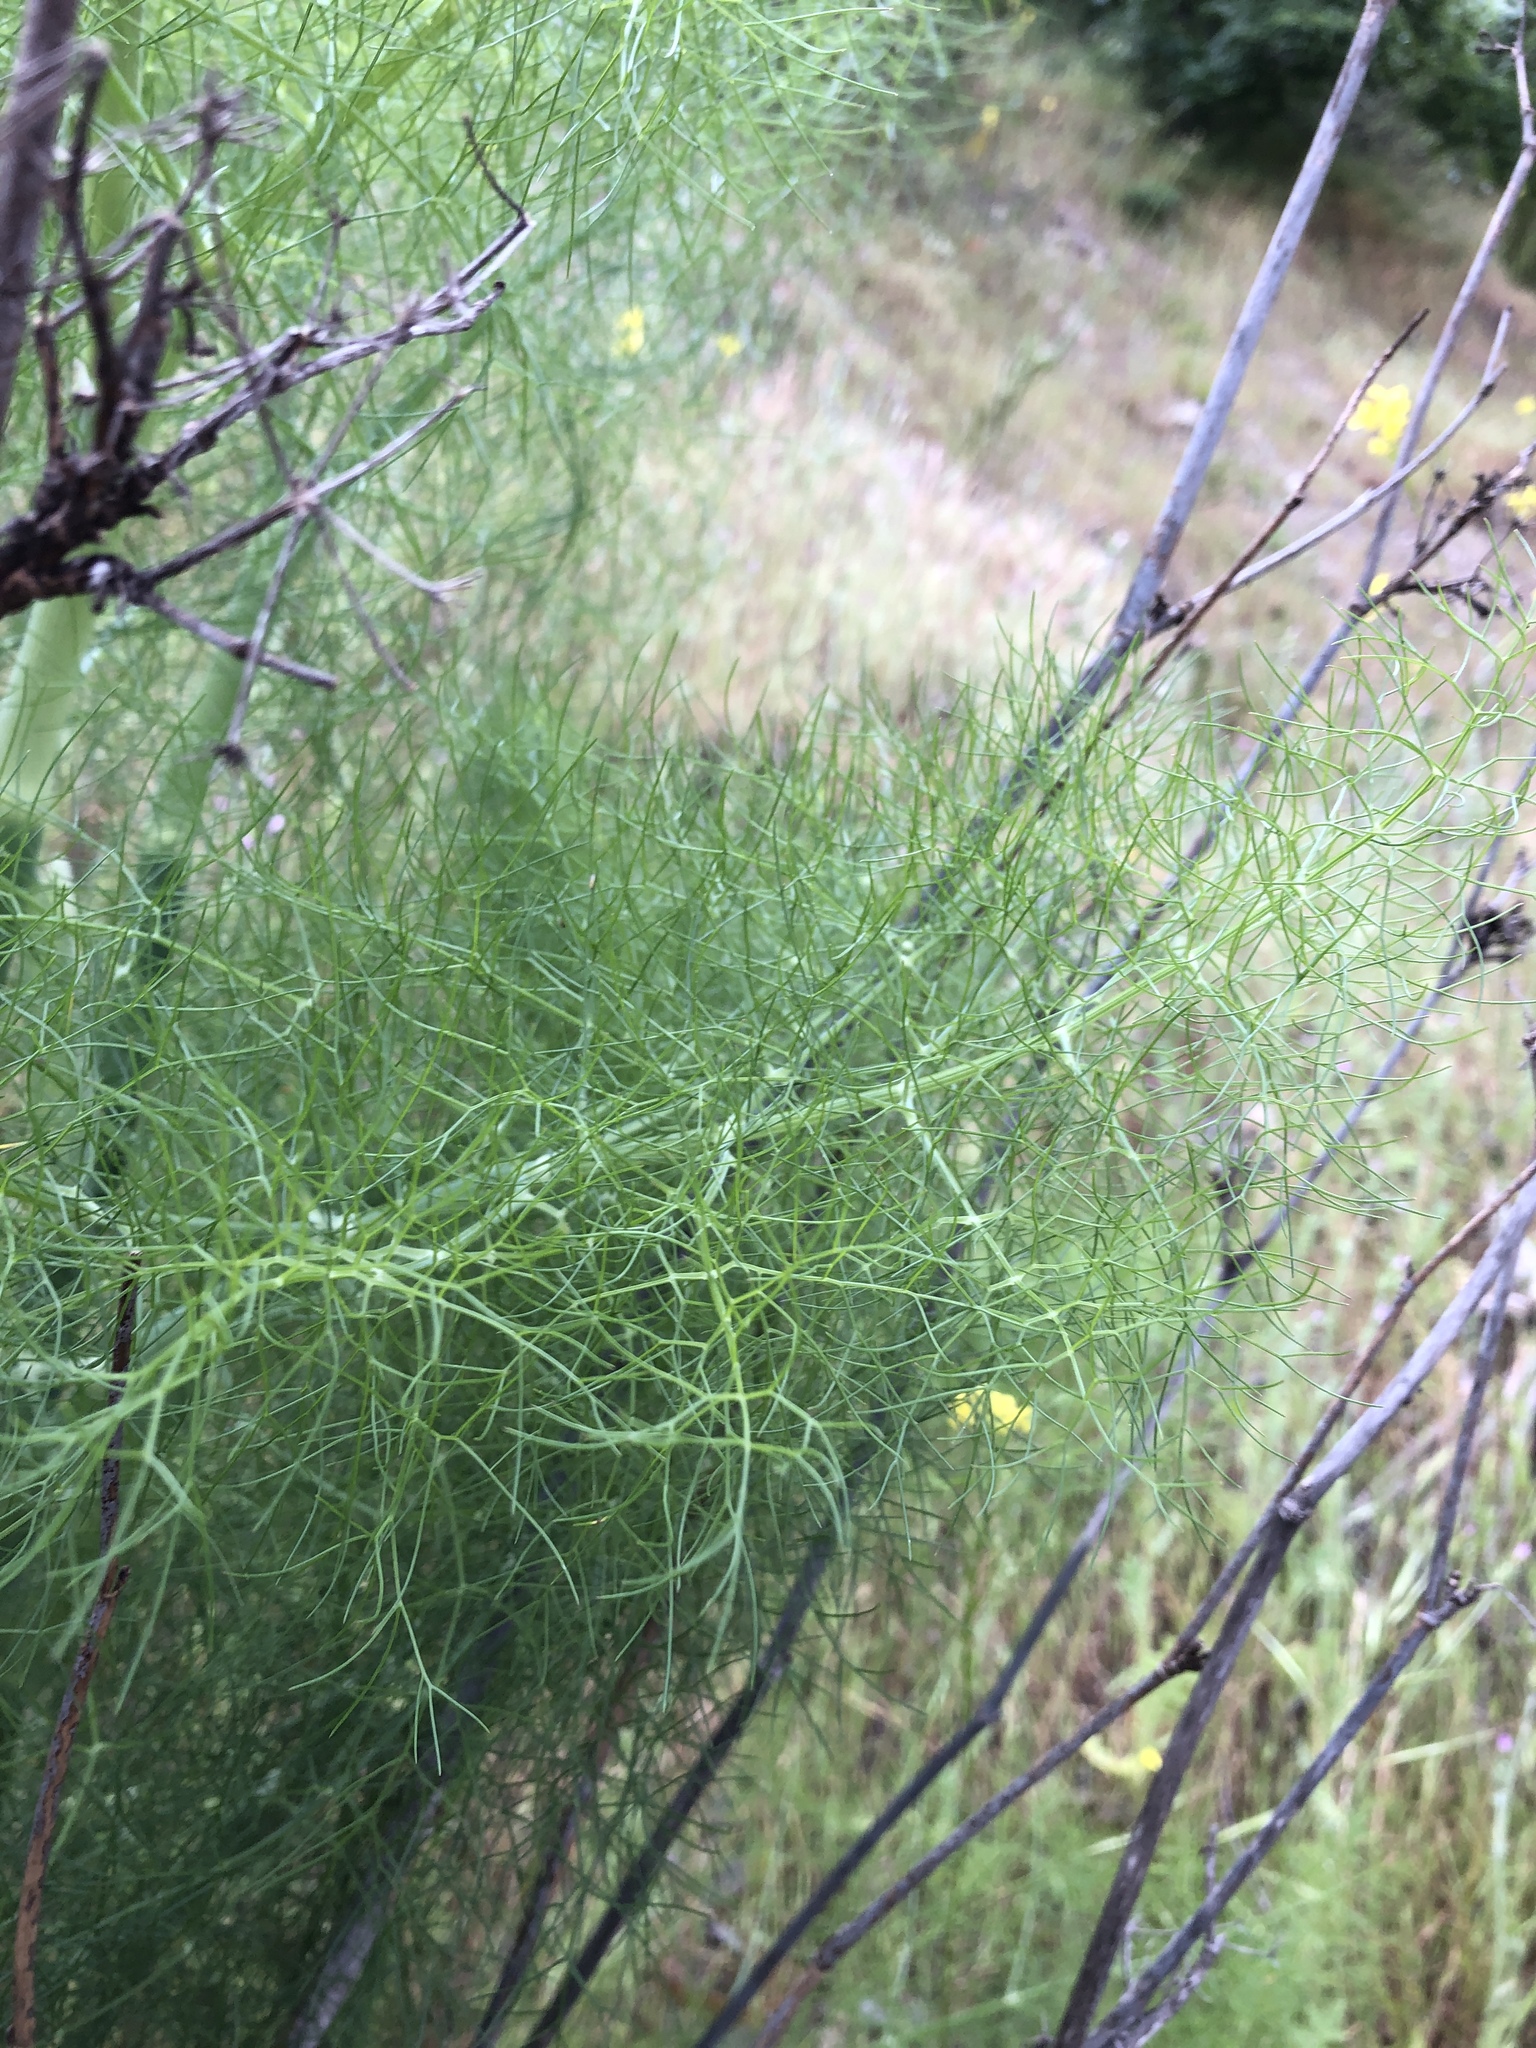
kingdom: Plantae
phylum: Tracheophyta
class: Magnoliopsida
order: Apiales
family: Apiaceae
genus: Foeniculum
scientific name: Foeniculum vulgare
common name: Fennel
